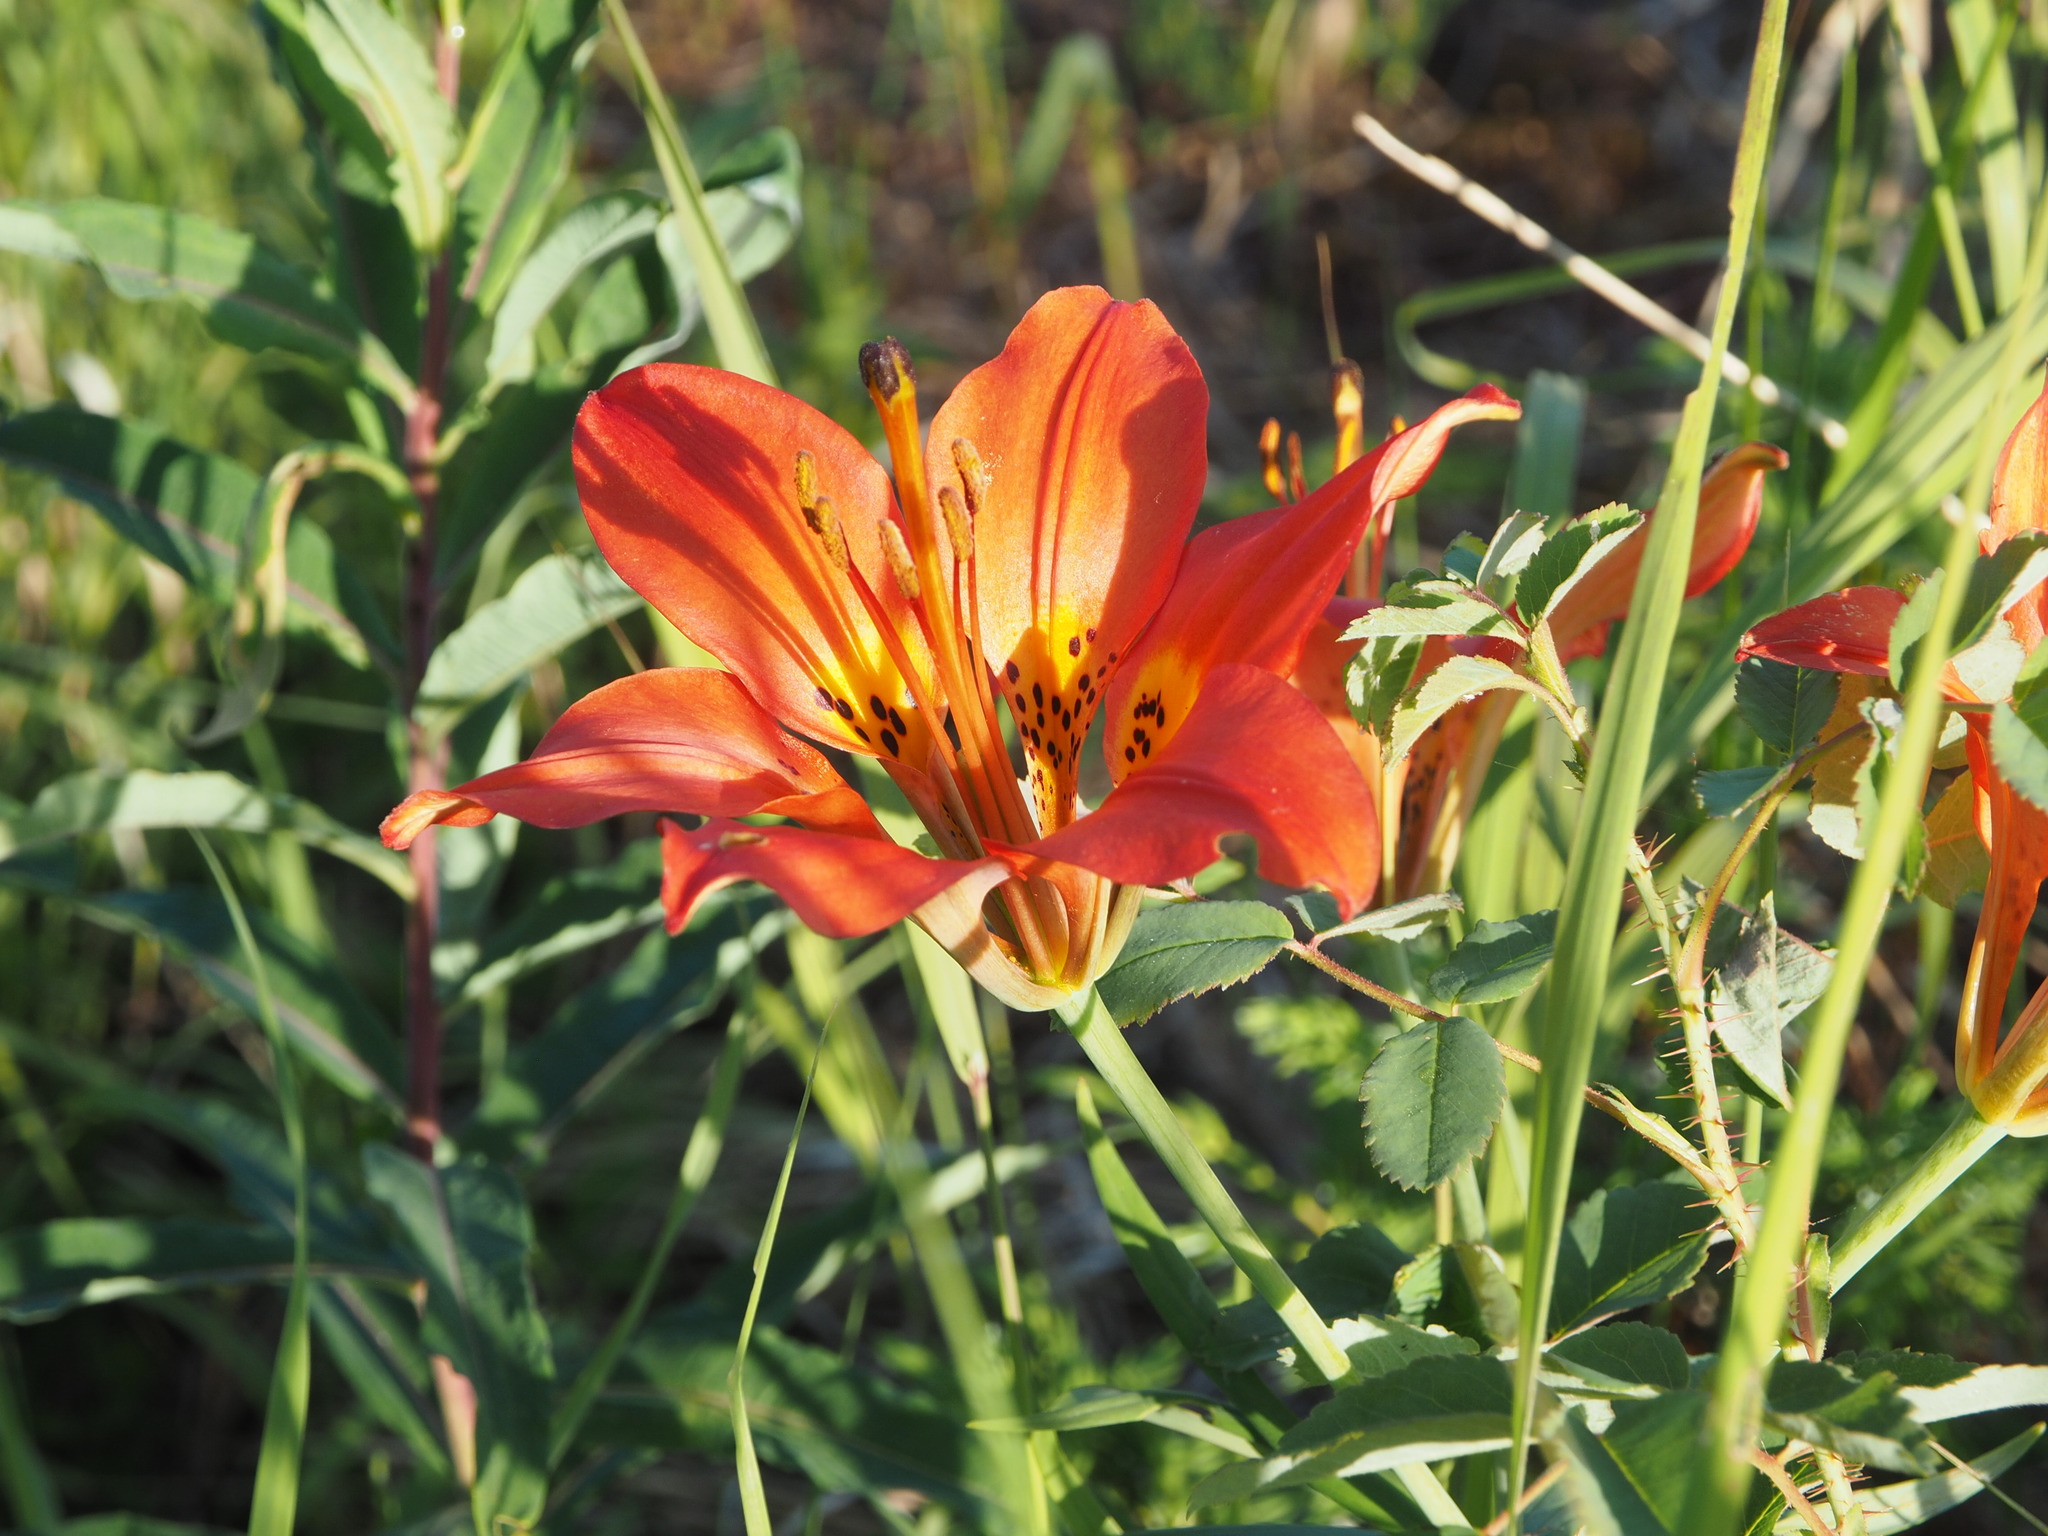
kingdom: Plantae
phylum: Tracheophyta
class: Liliopsida
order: Liliales
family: Liliaceae
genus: Lilium
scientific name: Lilium philadelphicum
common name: Red lily
